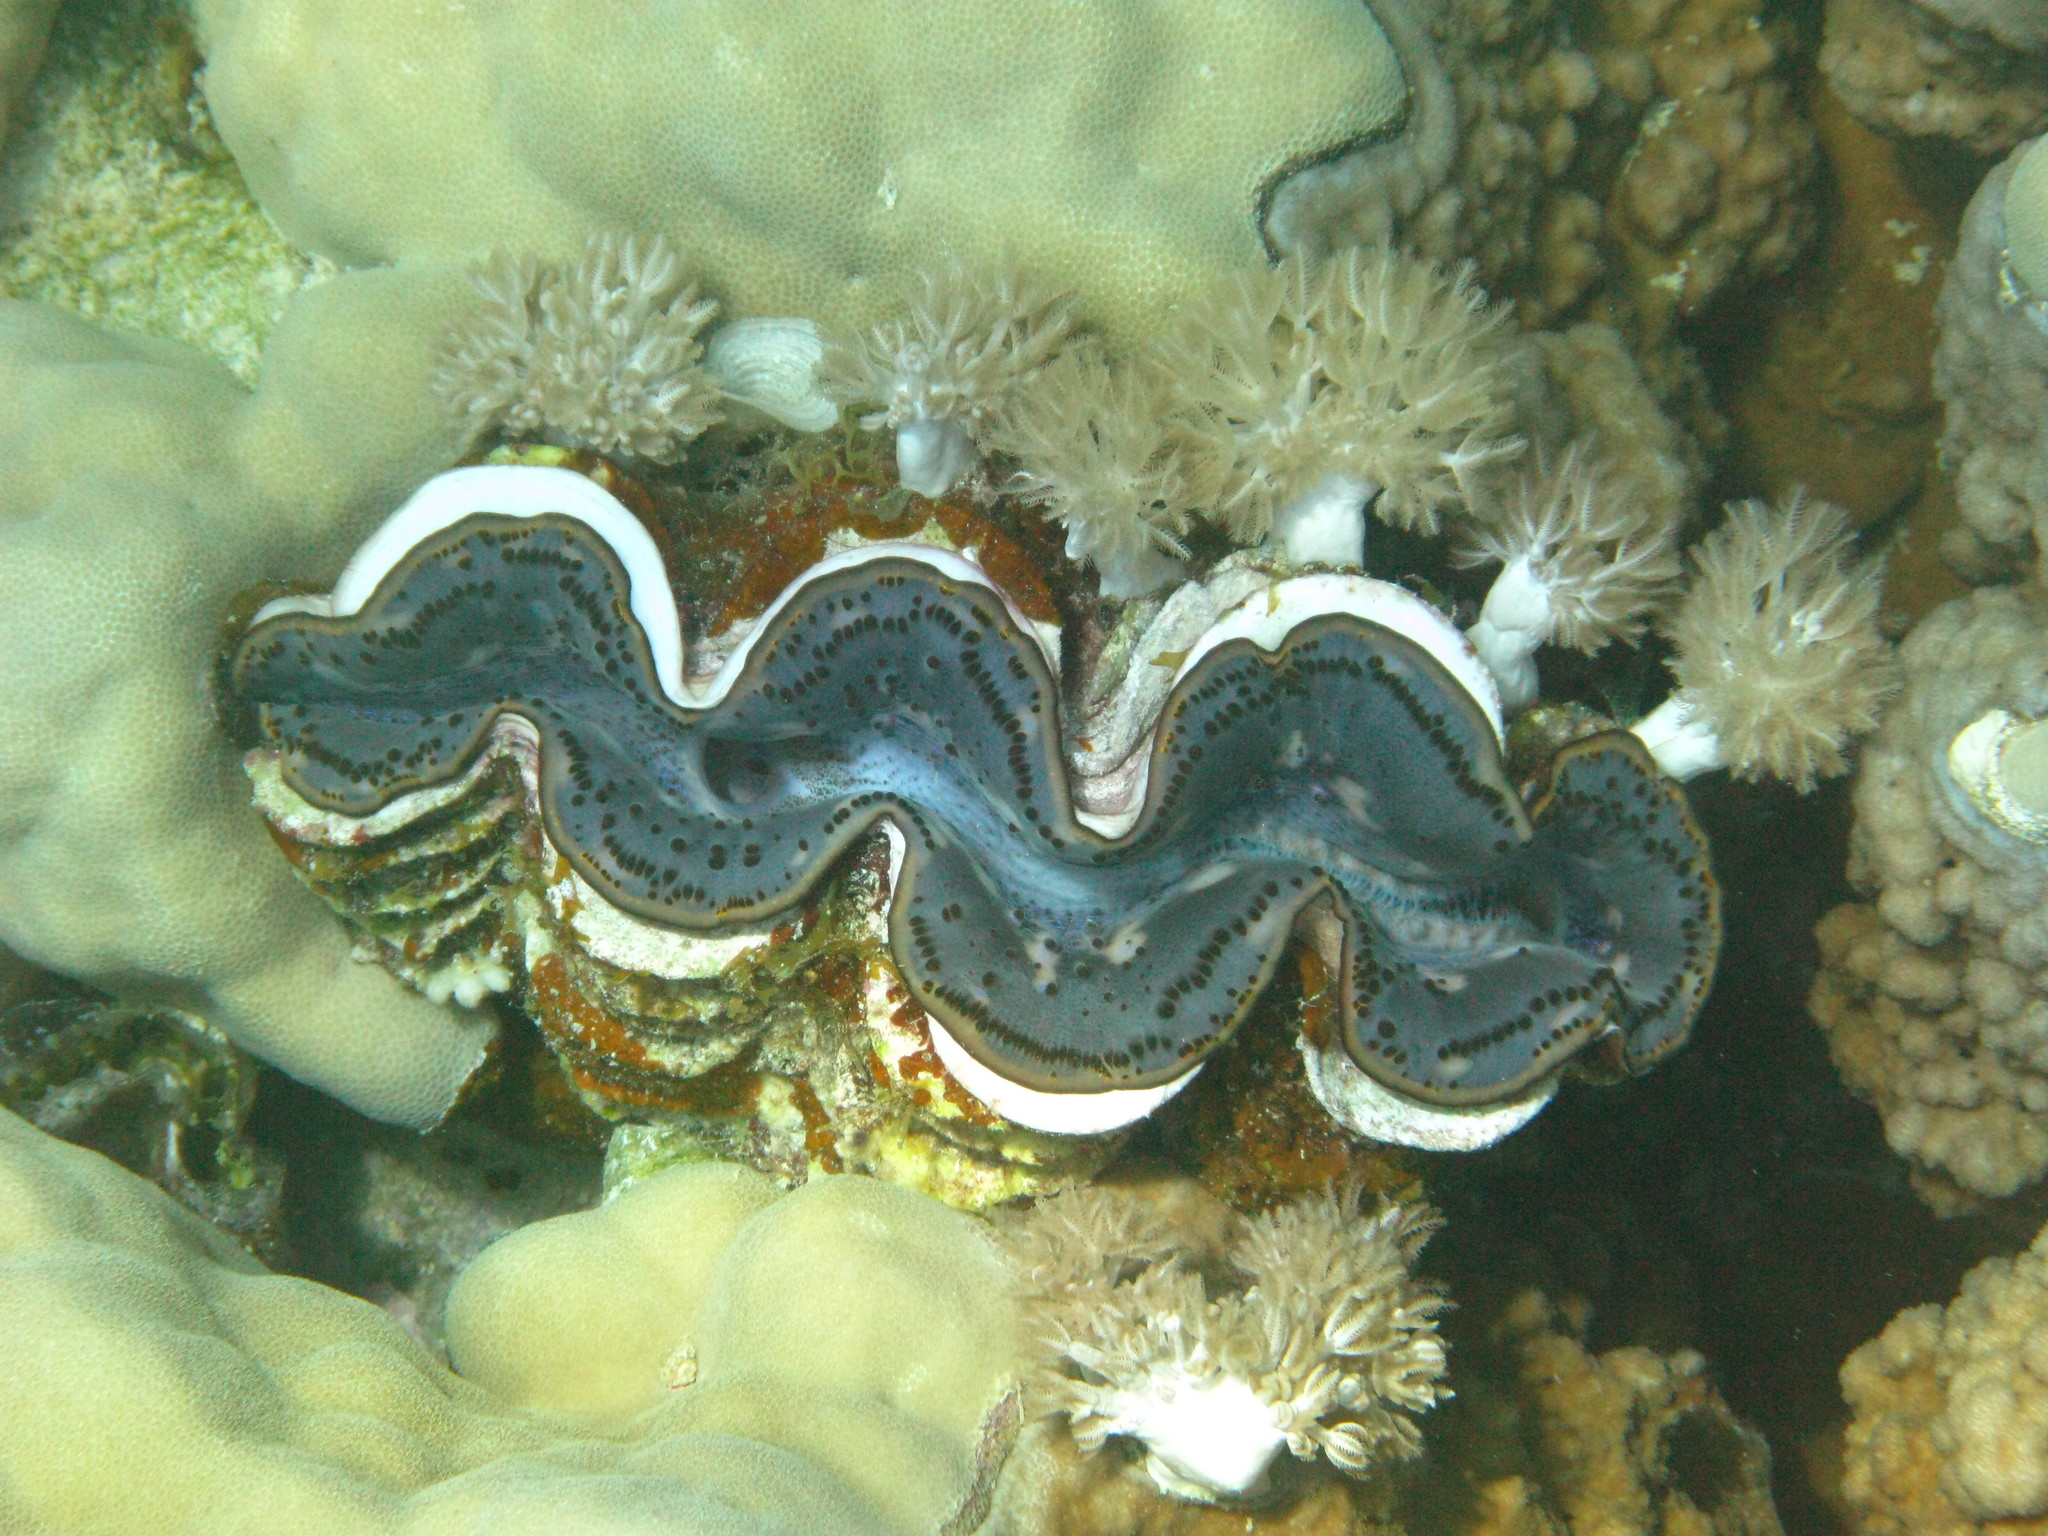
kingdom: Animalia
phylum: Mollusca
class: Bivalvia
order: Cardiida
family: Cardiidae
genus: Tridacna
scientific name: Tridacna squamosa
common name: Fluted clam
